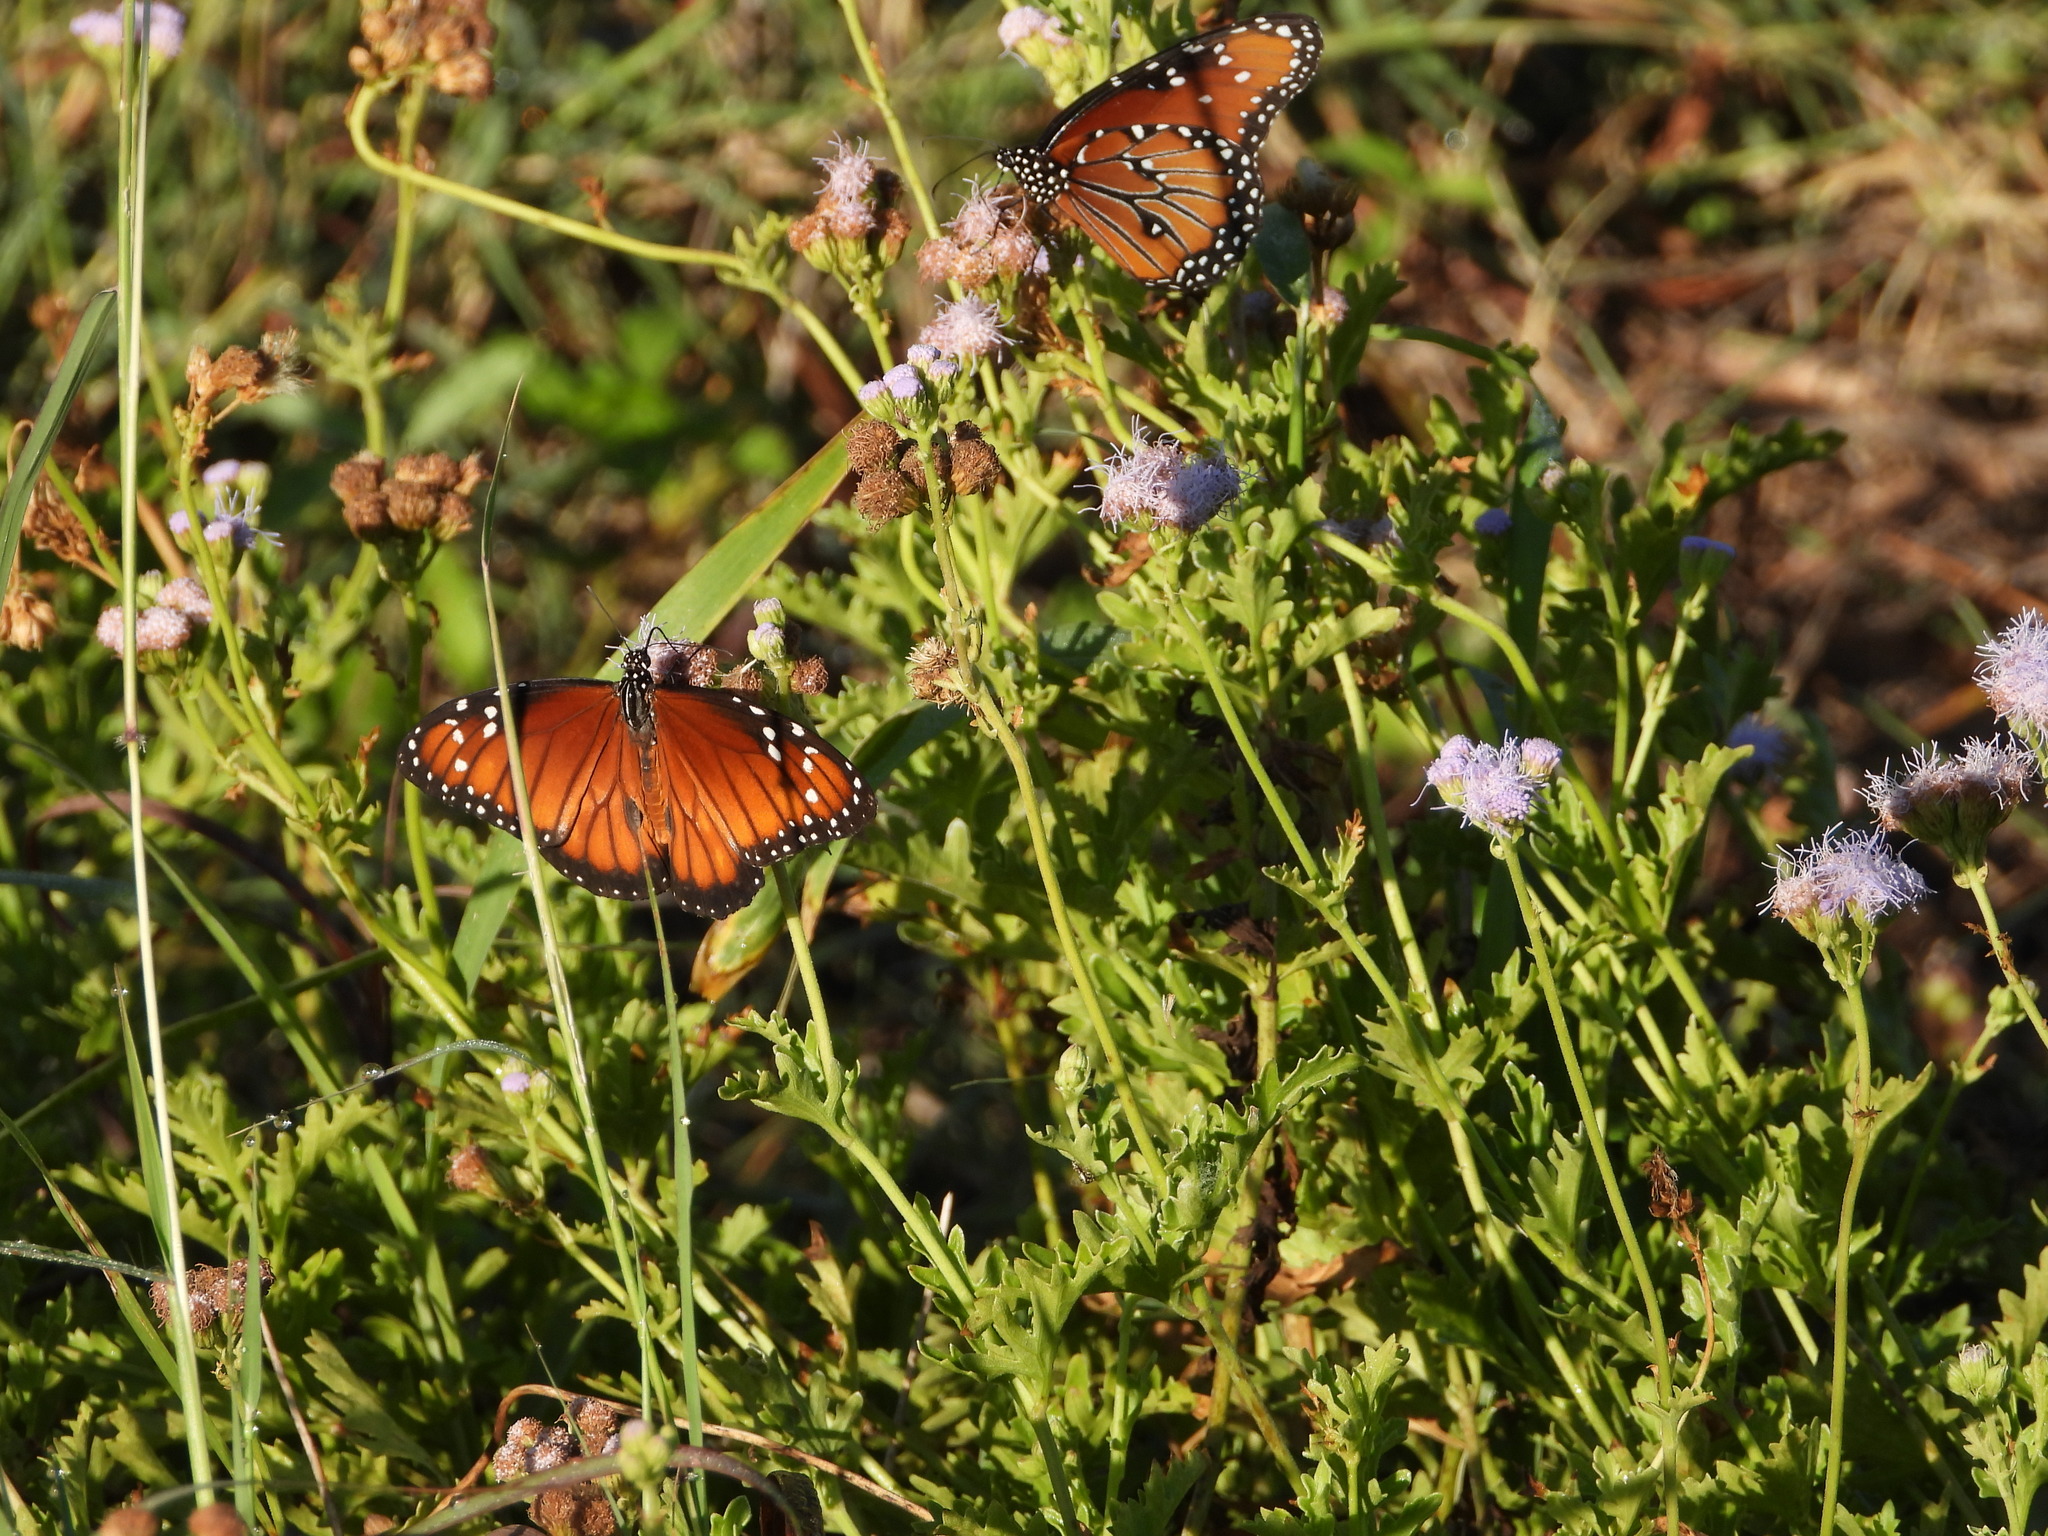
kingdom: Animalia
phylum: Arthropoda
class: Insecta
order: Lepidoptera
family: Nymphalidae
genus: Danaus
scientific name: Danaus eresimus
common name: Soldier
